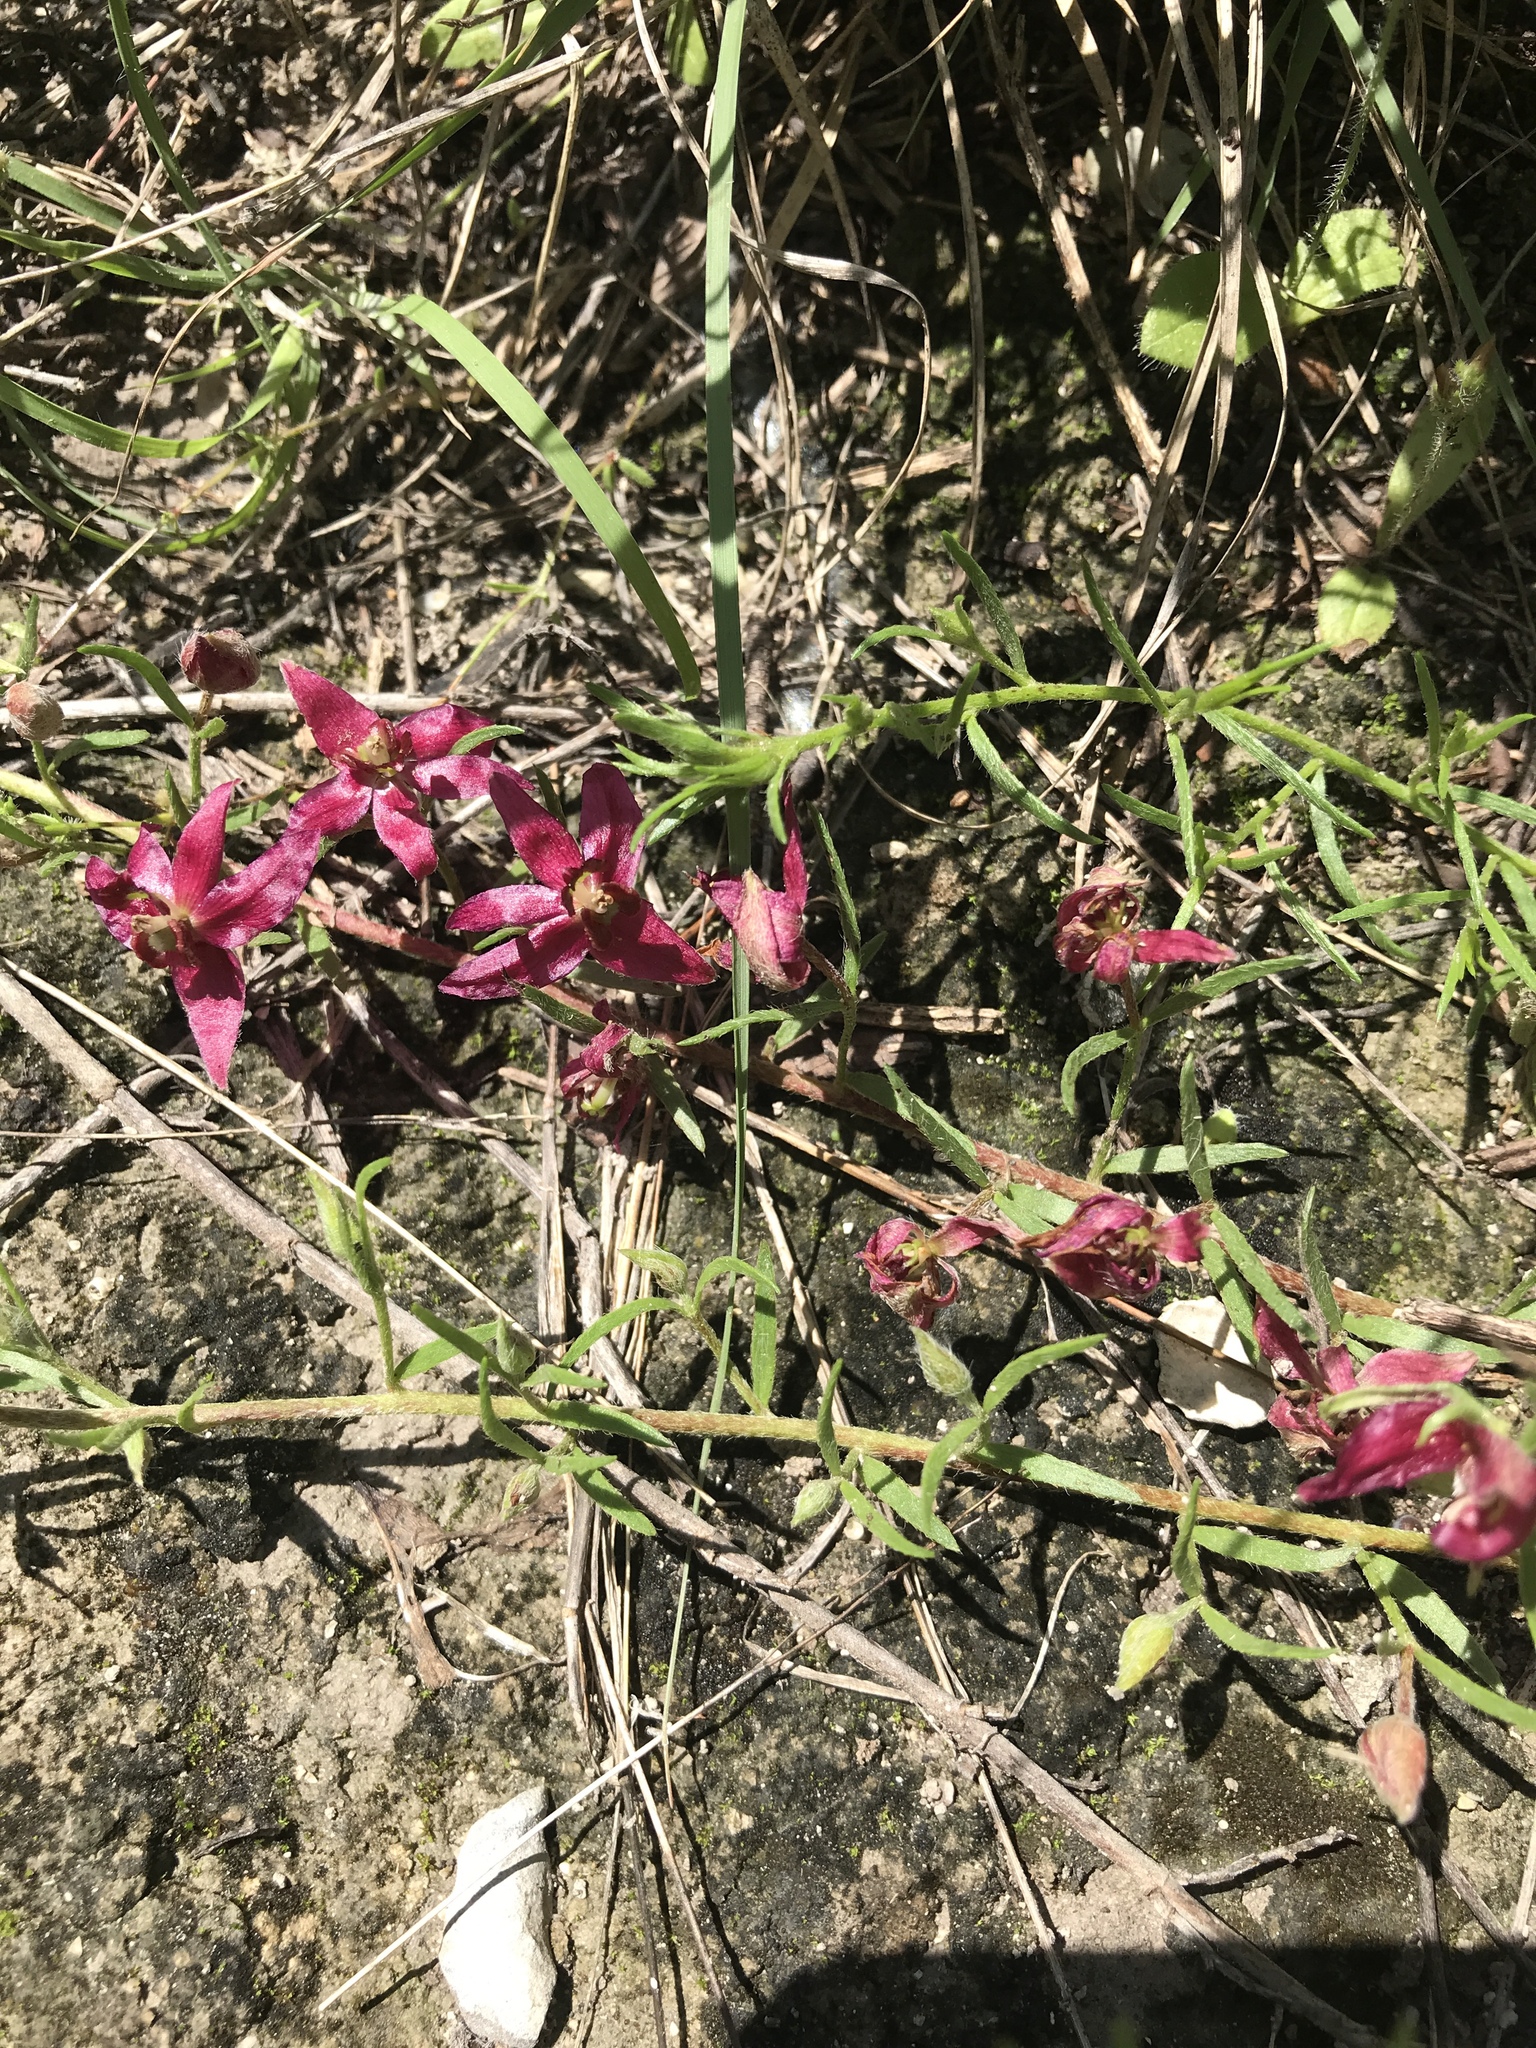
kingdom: Plantae
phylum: Tracheophyta
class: Magnoliopsida
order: Zygophyllales
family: Krameriaceae
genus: Krameria
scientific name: Krameria lanceolata
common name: Ratany
